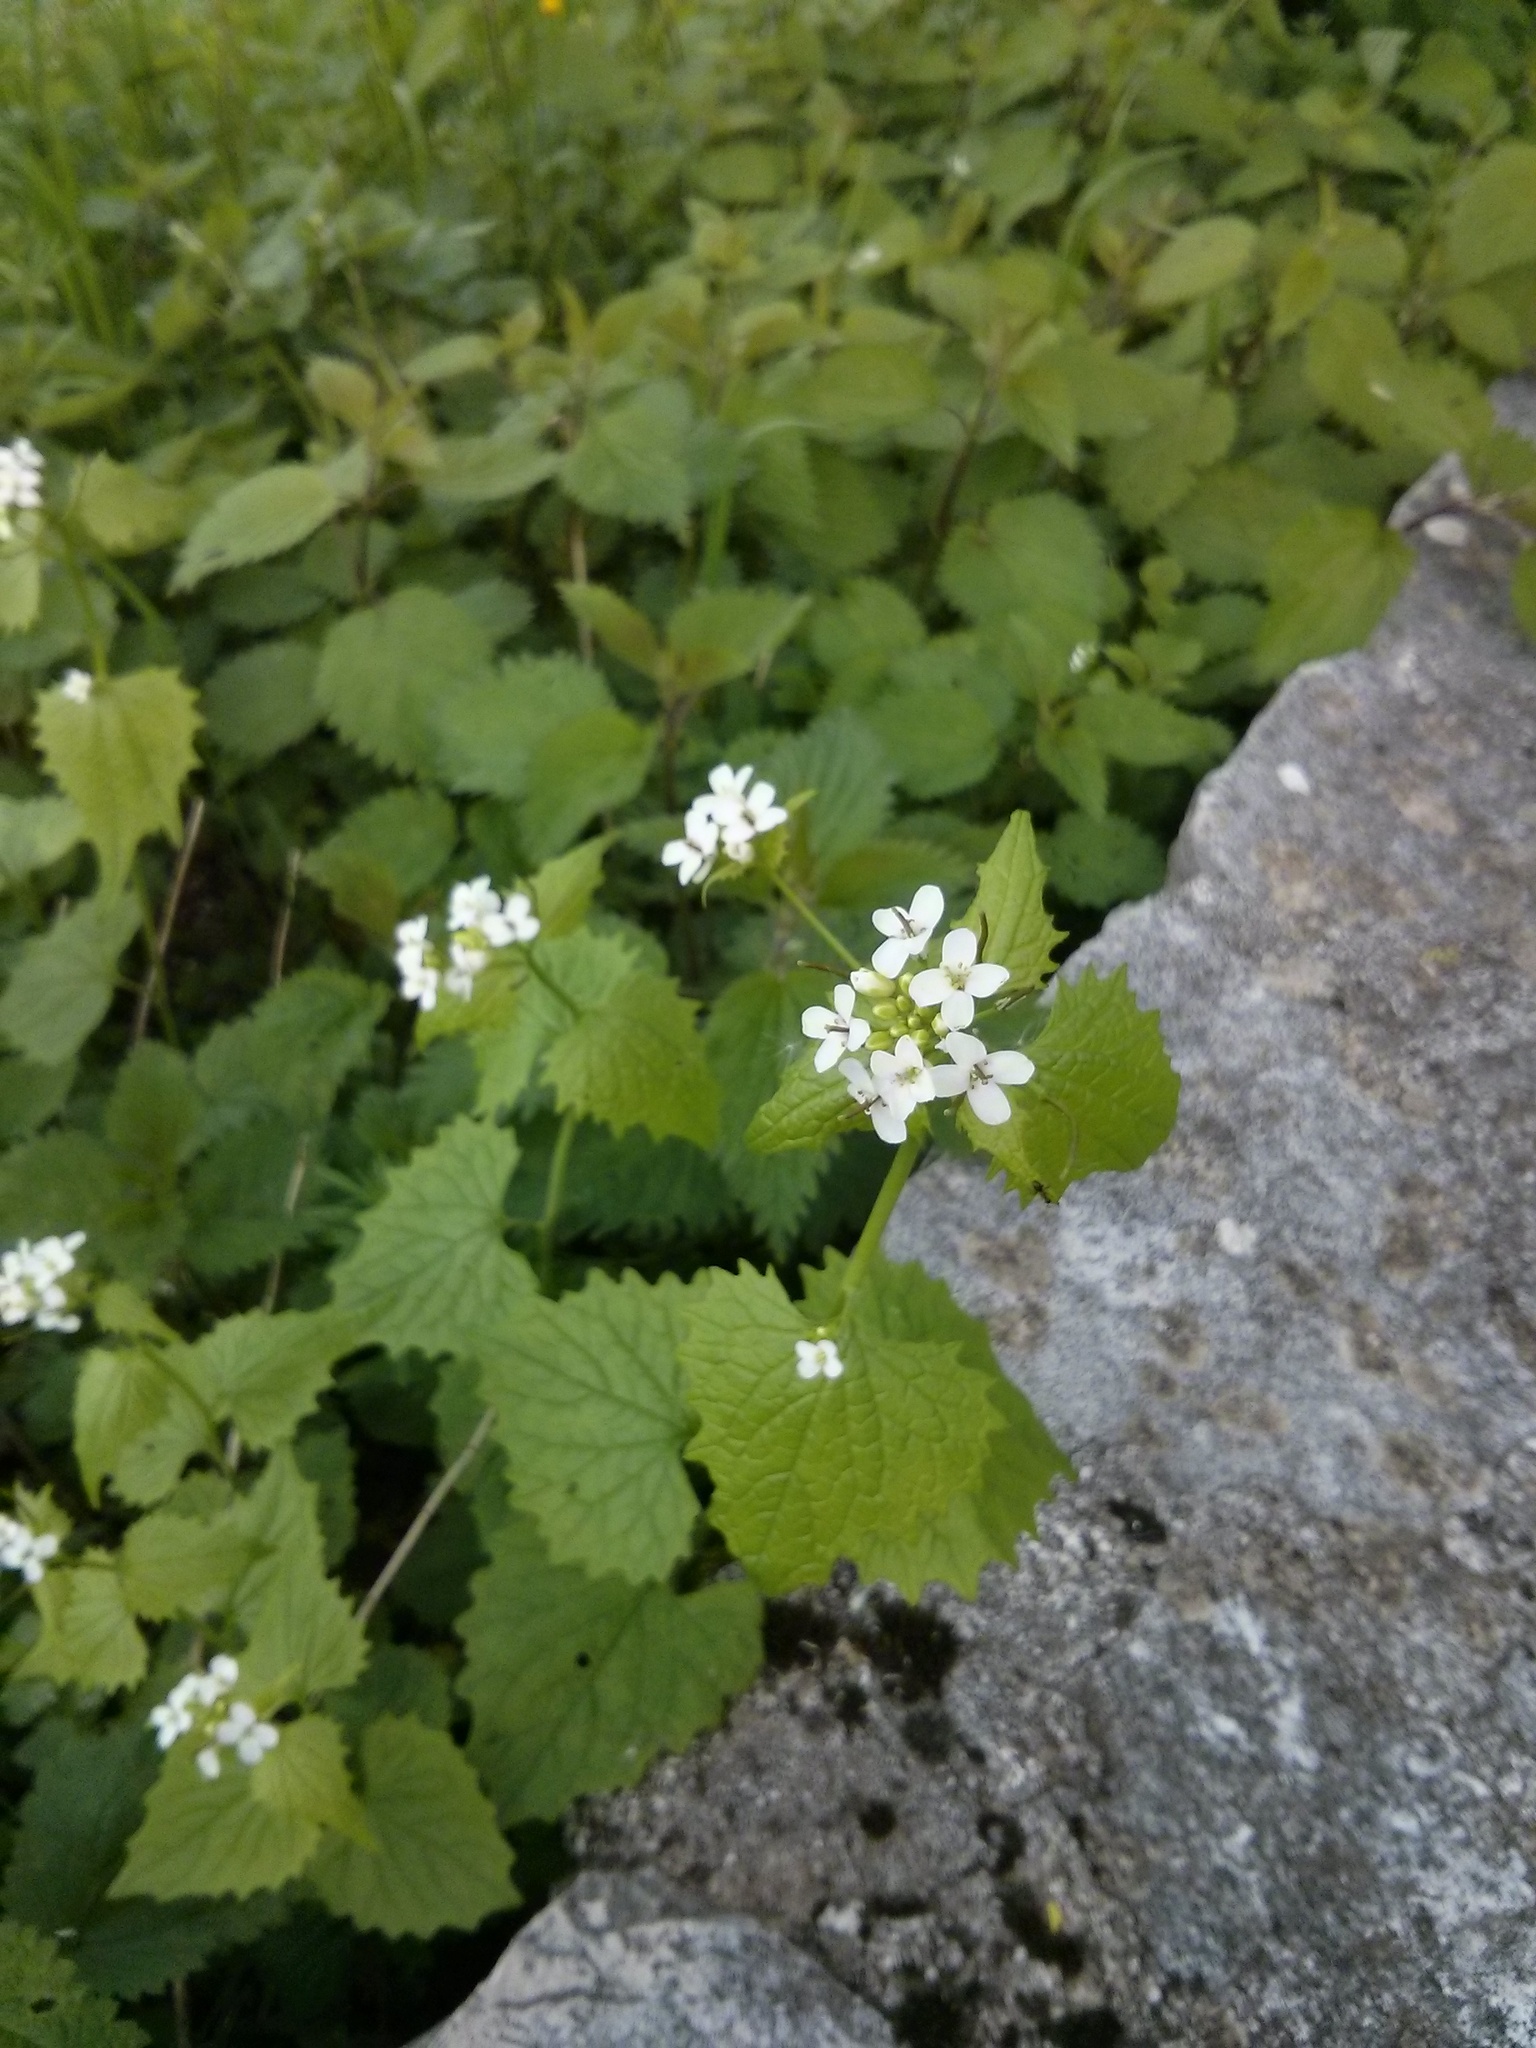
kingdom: Plantae
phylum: Tracheophyta
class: Magnoliopsida
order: Brassicales
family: Brassicaceae
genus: Alliaria
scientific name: Alliaria petiolata
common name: Garlic mustard
